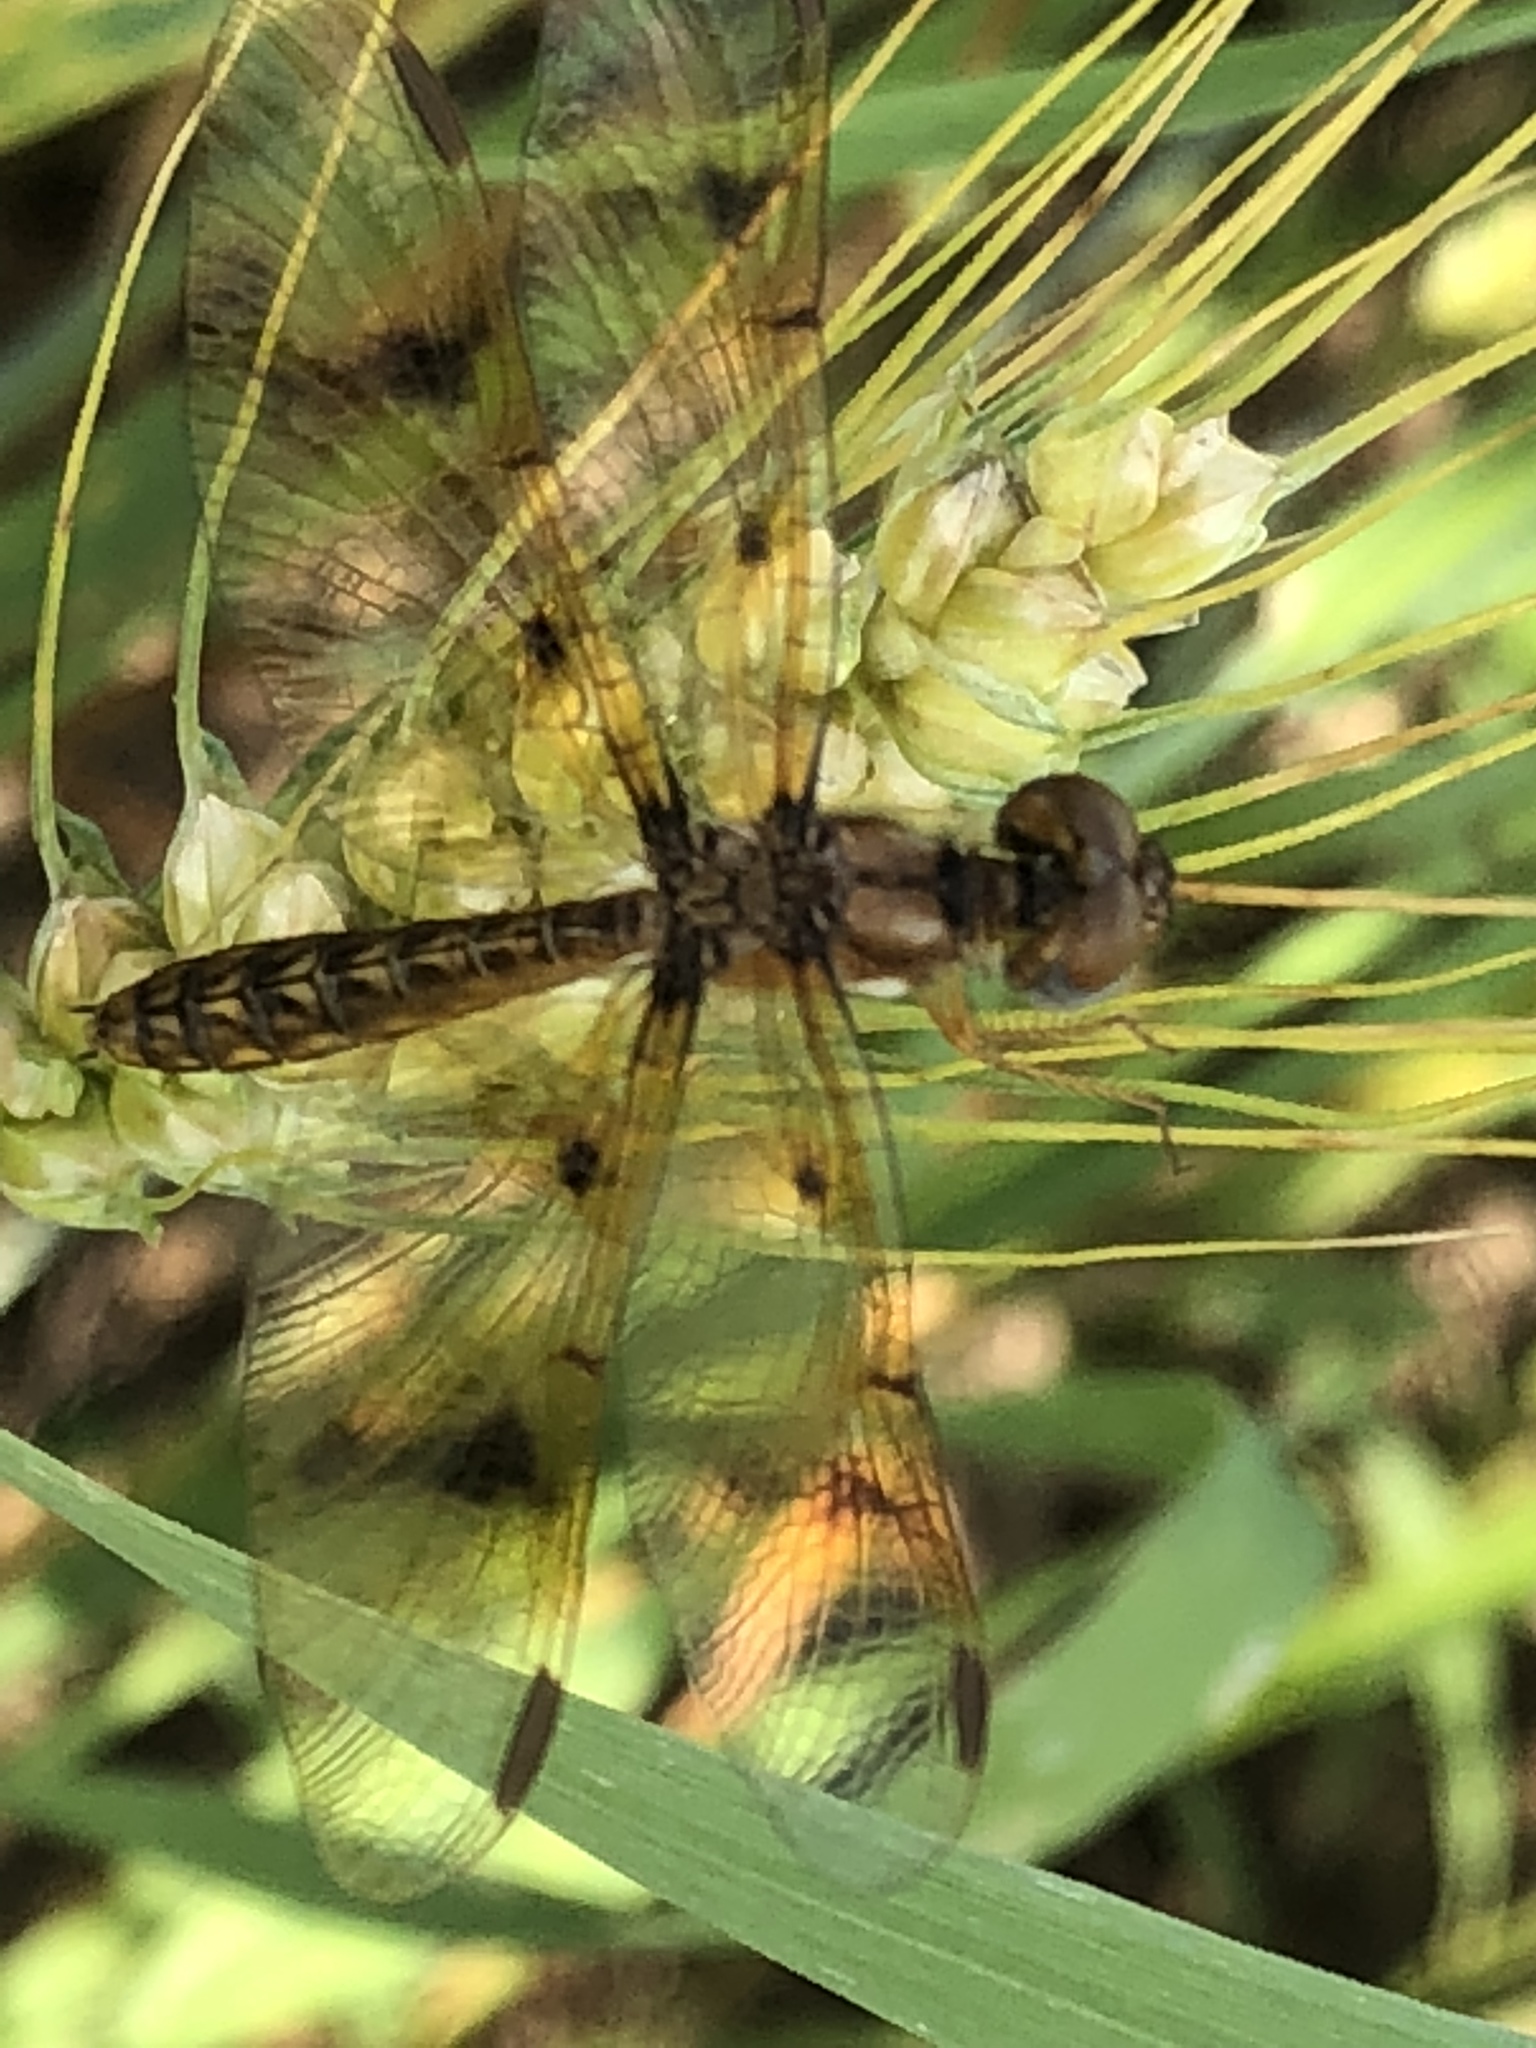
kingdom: Animalia
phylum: Arthropoda
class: Insecta
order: Odonata
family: Libellulidae
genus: Perithemis
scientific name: Perithemis tenera
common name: Eastern amberwing
